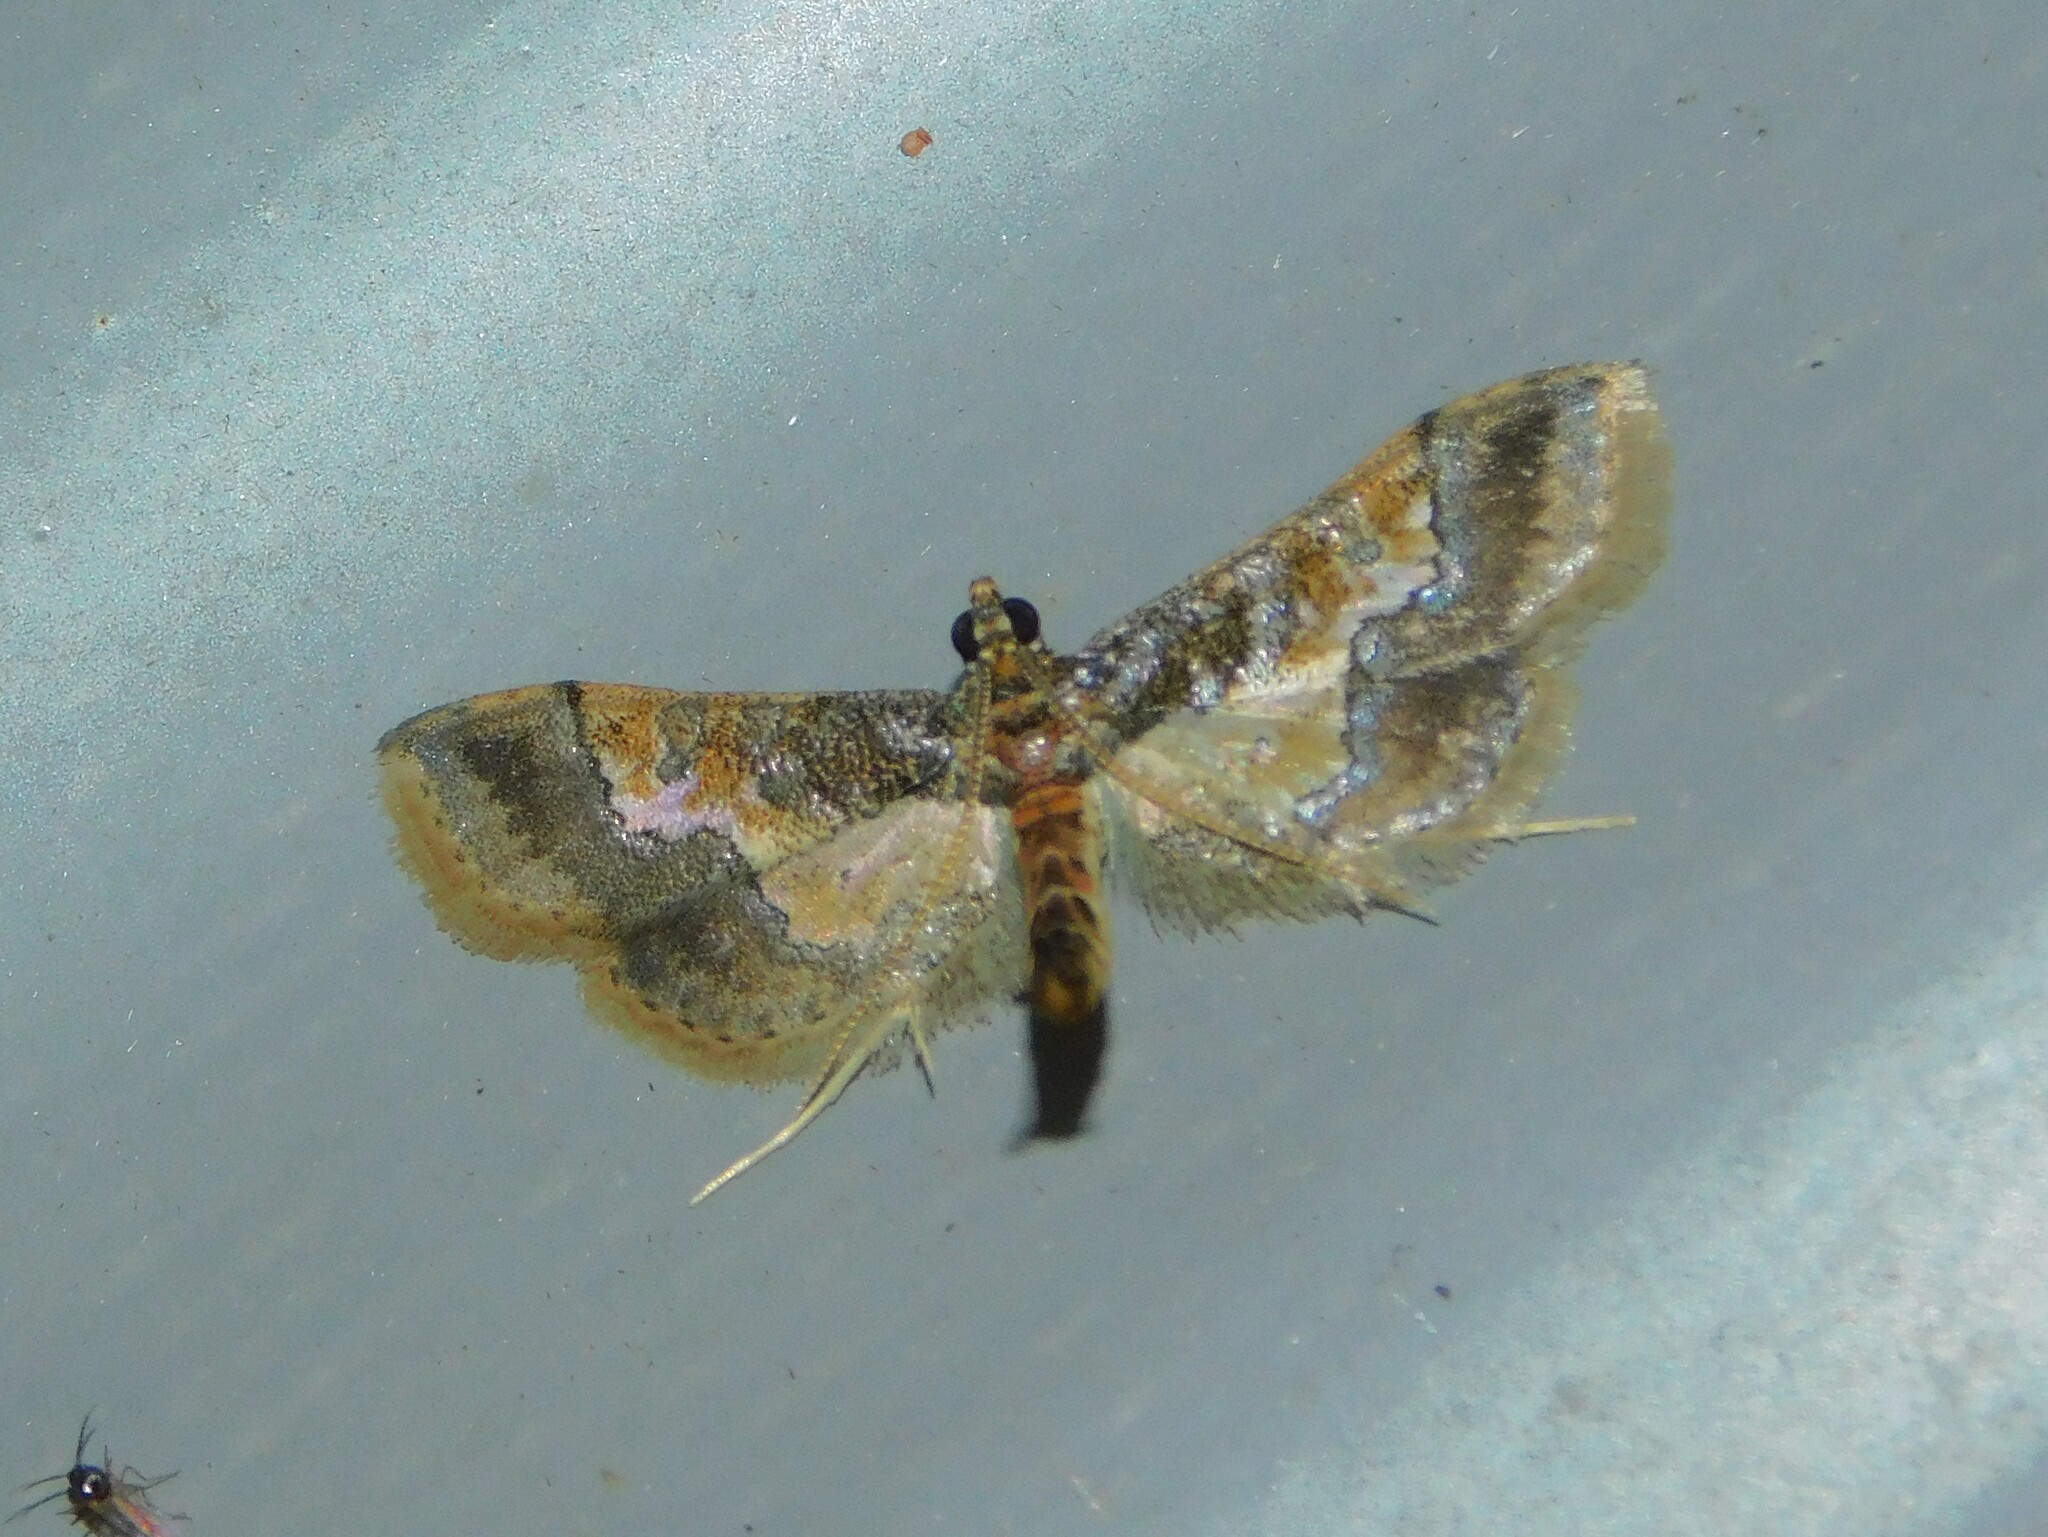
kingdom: Animalia
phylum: Arthropoda
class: Insecta
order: Lepidoptera
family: Crambidae
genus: Hydriris
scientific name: Hydriris ornatalis
